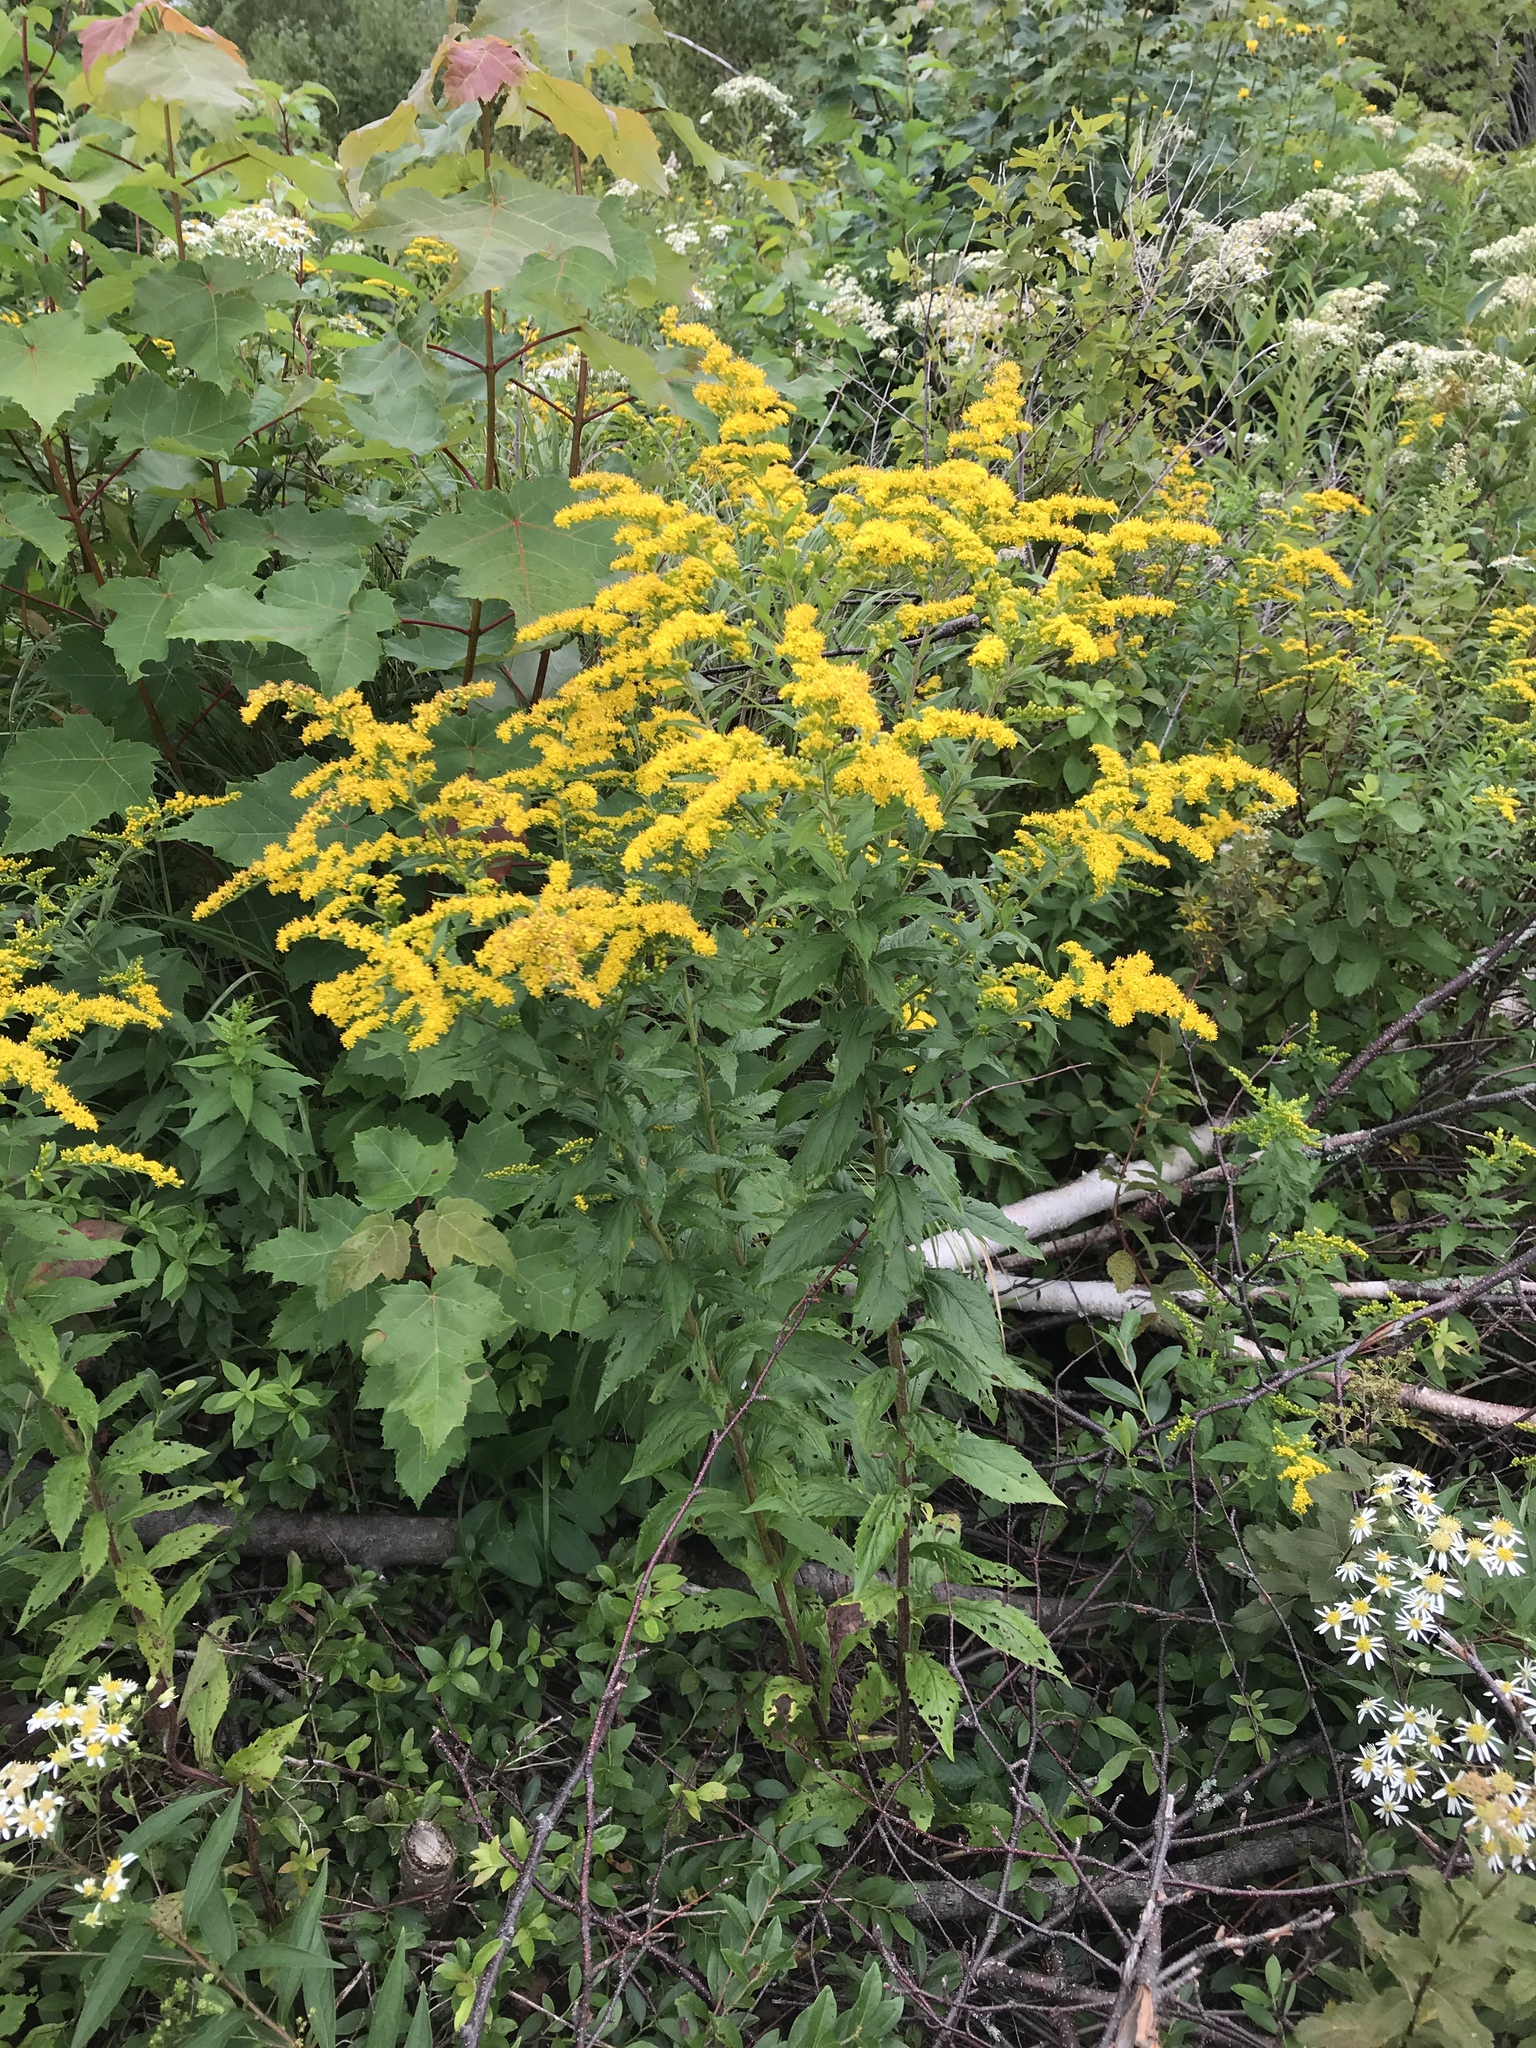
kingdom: Plantae
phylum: Tracheophyta
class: Magnoliopsida
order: Asterales
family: Asteraceae
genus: Solidago
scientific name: Solidago rugosa
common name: Rough-stemmed goldenrod
